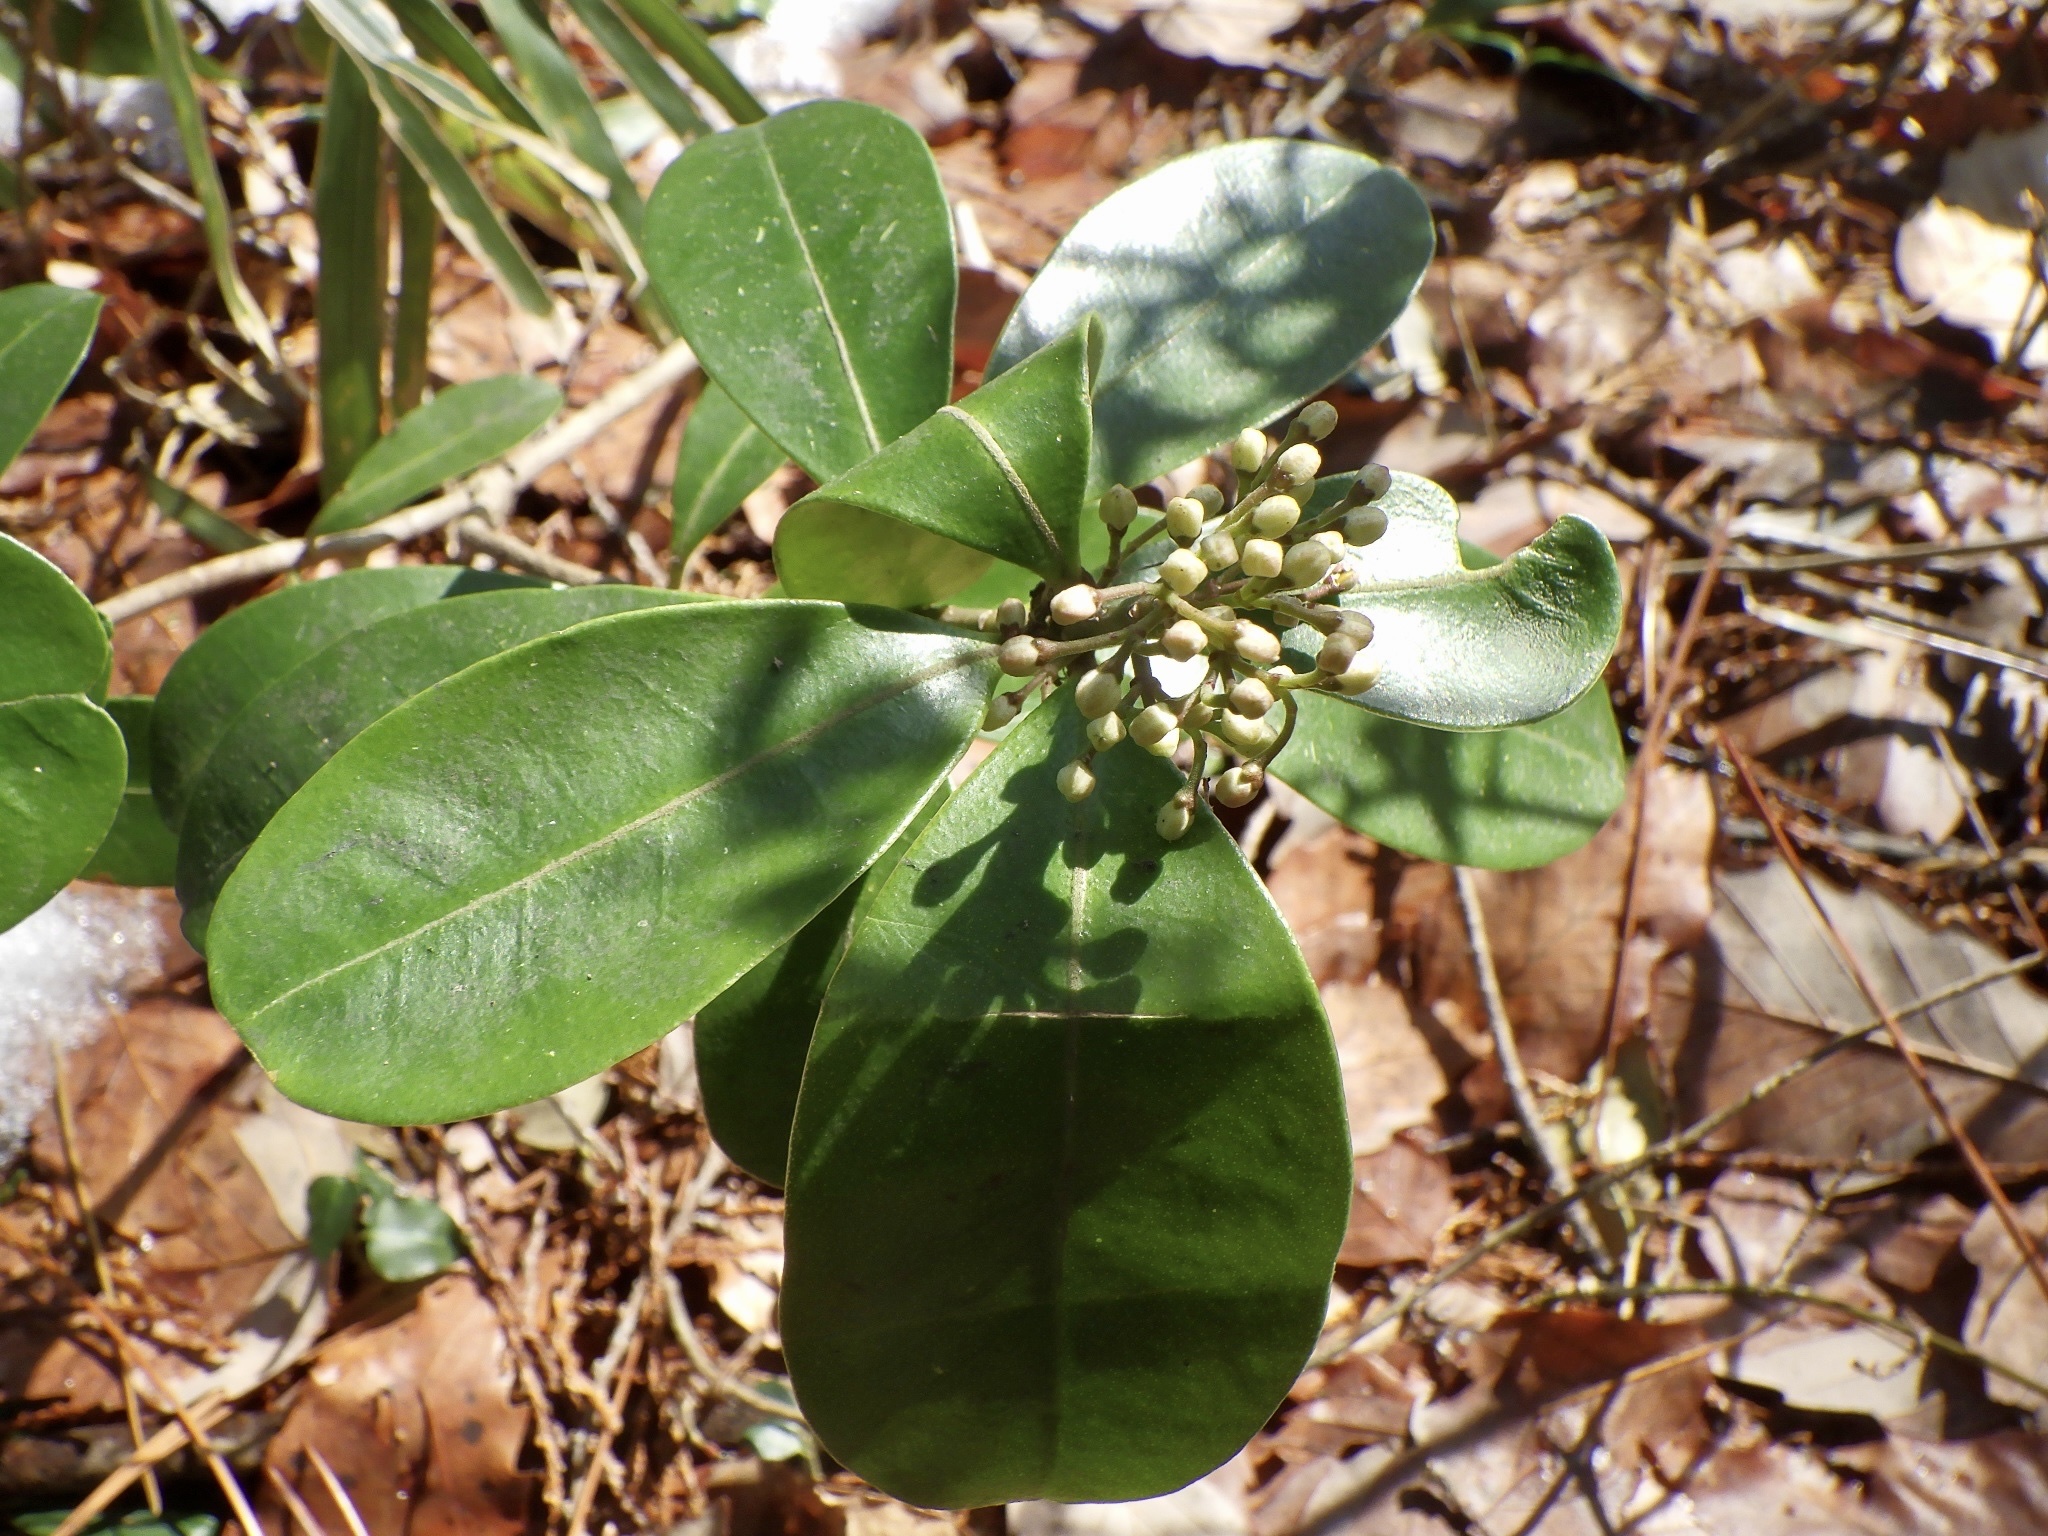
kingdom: Plantae
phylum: Tracheophyta
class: Magnoliopsida
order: Sapindales
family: Rutaceae
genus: Skimmia
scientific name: Skimmia japonica
